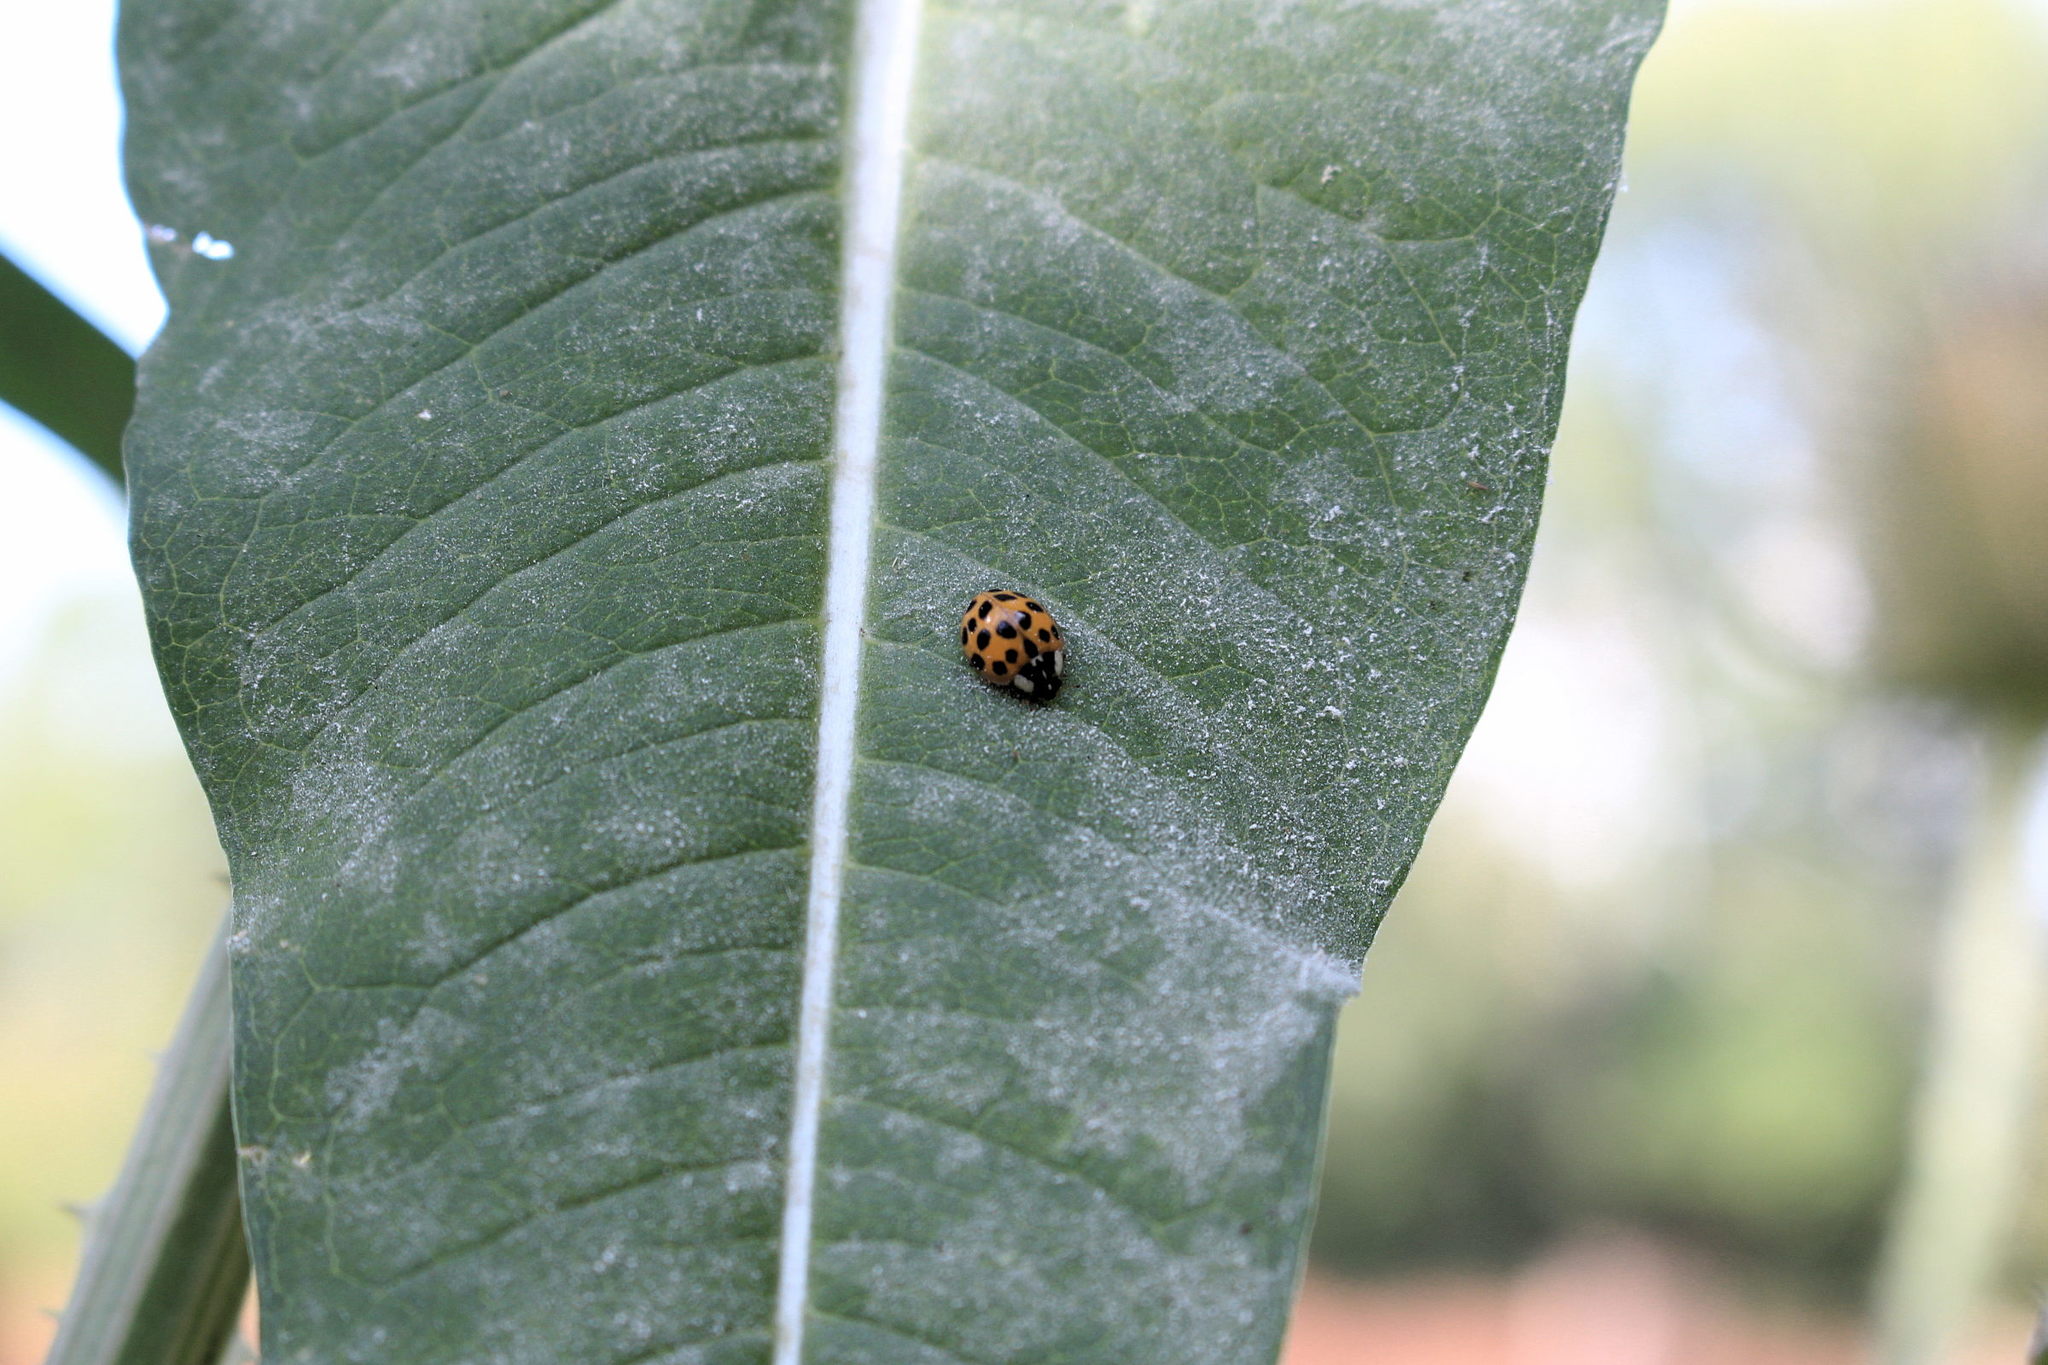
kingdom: Animalia
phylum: Arthropoda
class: Insecta
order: Coleoptera
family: Coccinellidae
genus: Harmonia
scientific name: Harmonia axyridis
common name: Harlequin ladybird
